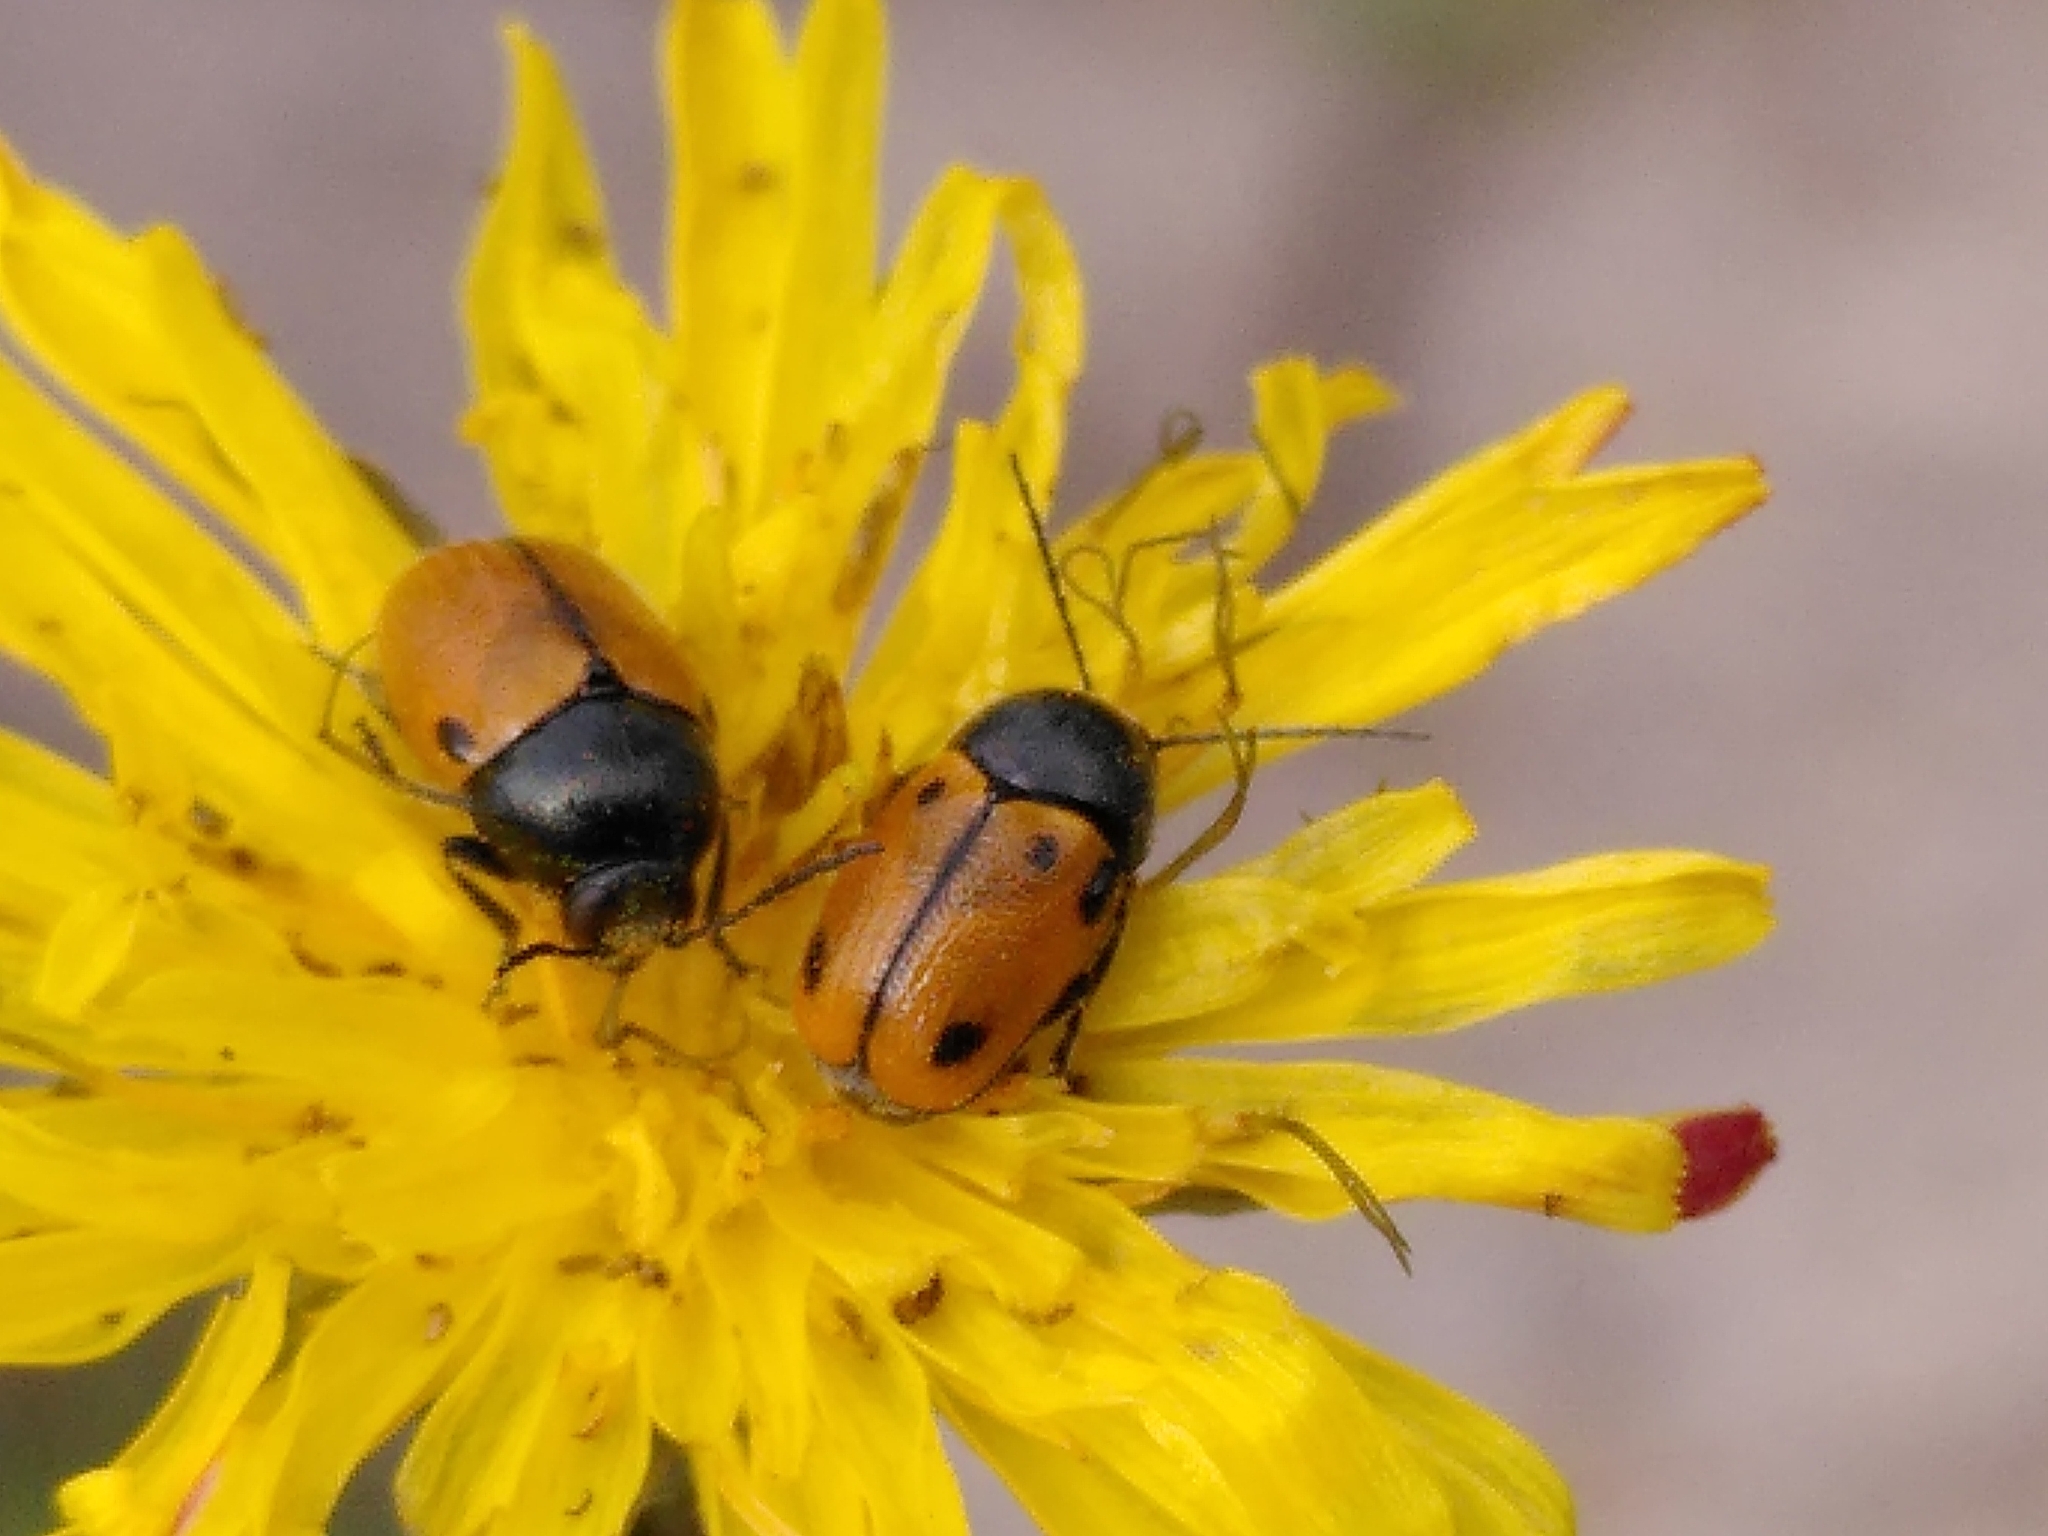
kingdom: Animalia
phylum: Arthropoda
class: Insecta
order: Coleoptera
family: Chrysomelidae
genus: Cryptocephalus
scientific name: Cryptocephalus rugicollis
